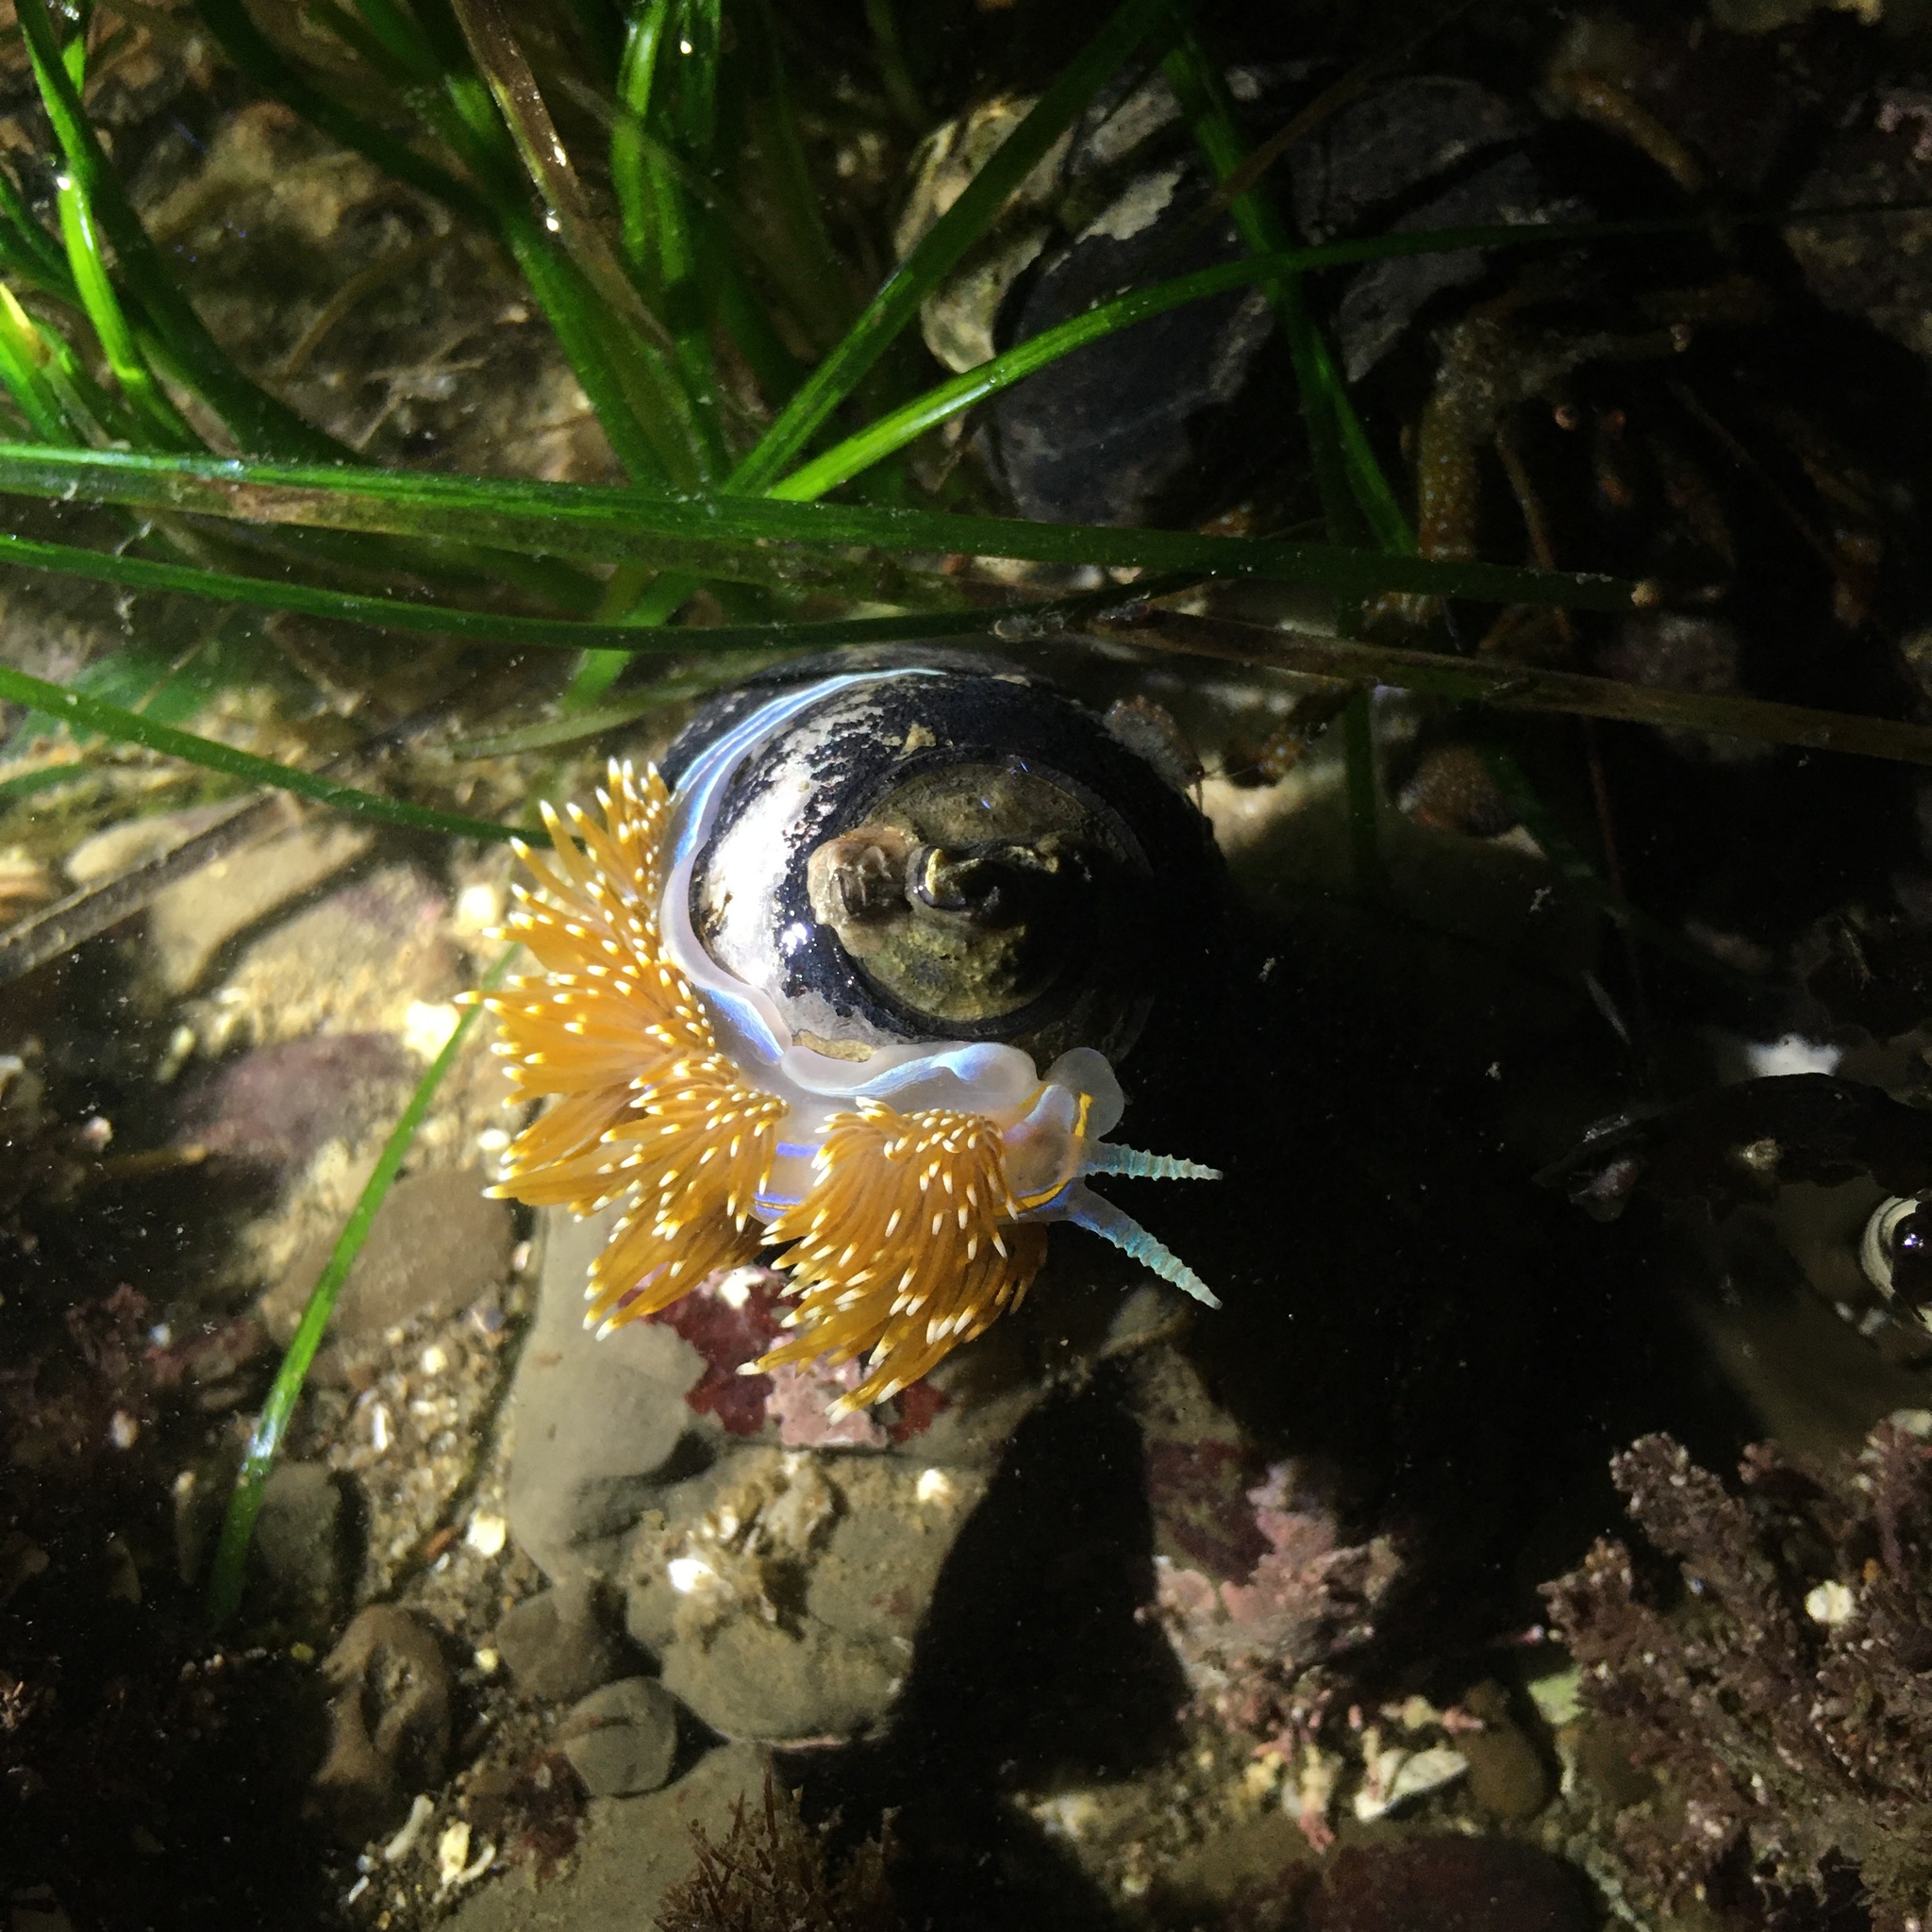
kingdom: Animalia
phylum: Mollusca
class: Gastropoda
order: Nudibranchia
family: Myrrhinidae
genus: Hermissenda
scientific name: Hermissenda opalescens
